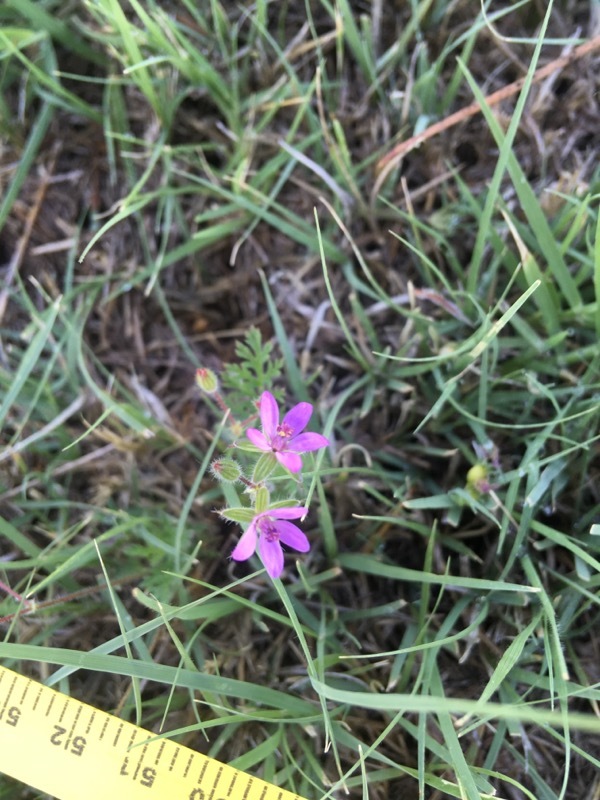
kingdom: Plantae
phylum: Tracheophyta
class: Magnoliopsida
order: Geraniales
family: Geraniaceae
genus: Erodium
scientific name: Erodium cicutarium
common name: Common stork's-bill
